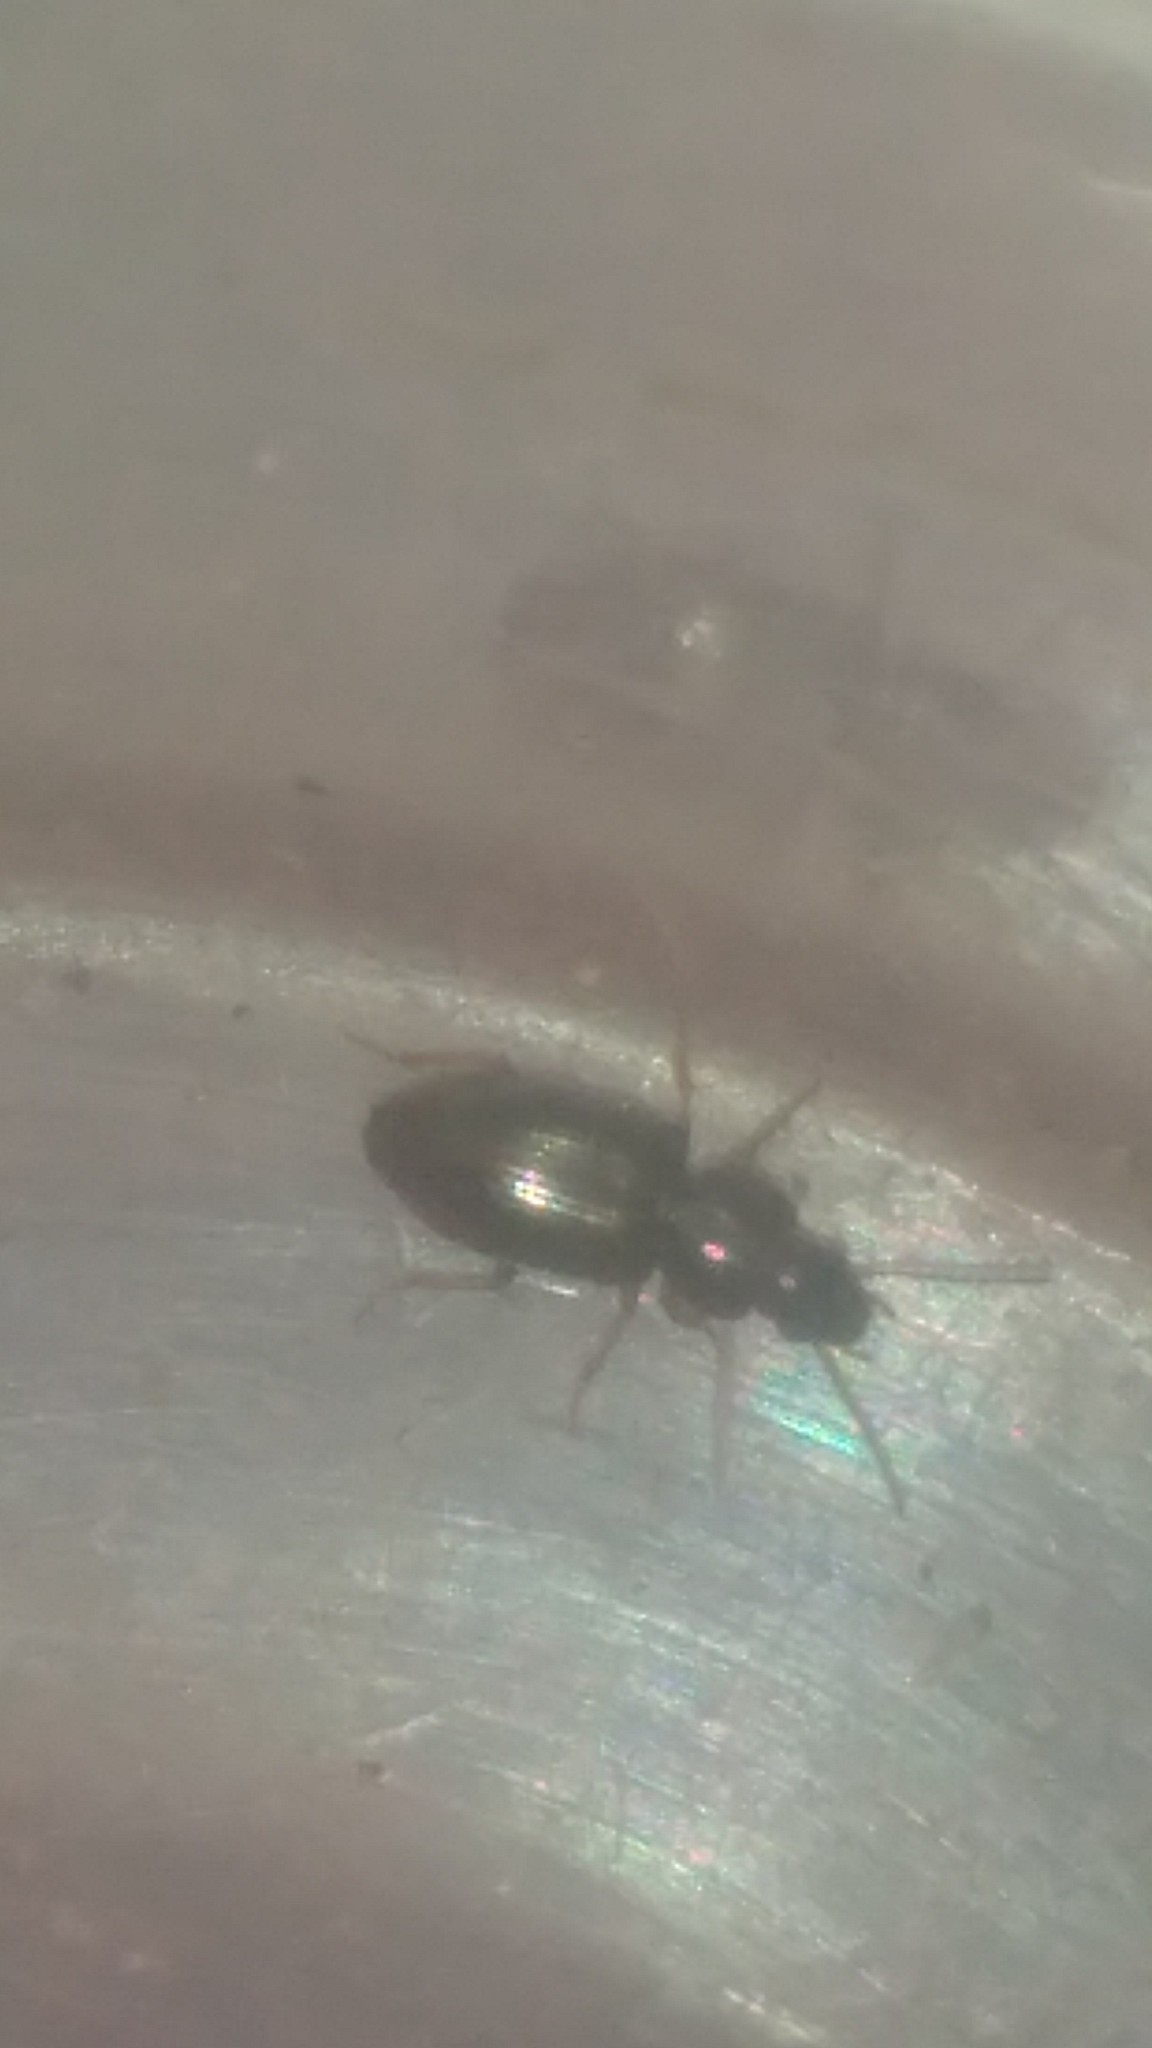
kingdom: Animalia
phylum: Arthropoda
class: Insecta
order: Coleoptera
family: Carabidae
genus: Notiobia
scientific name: Notiobia cupripennis
